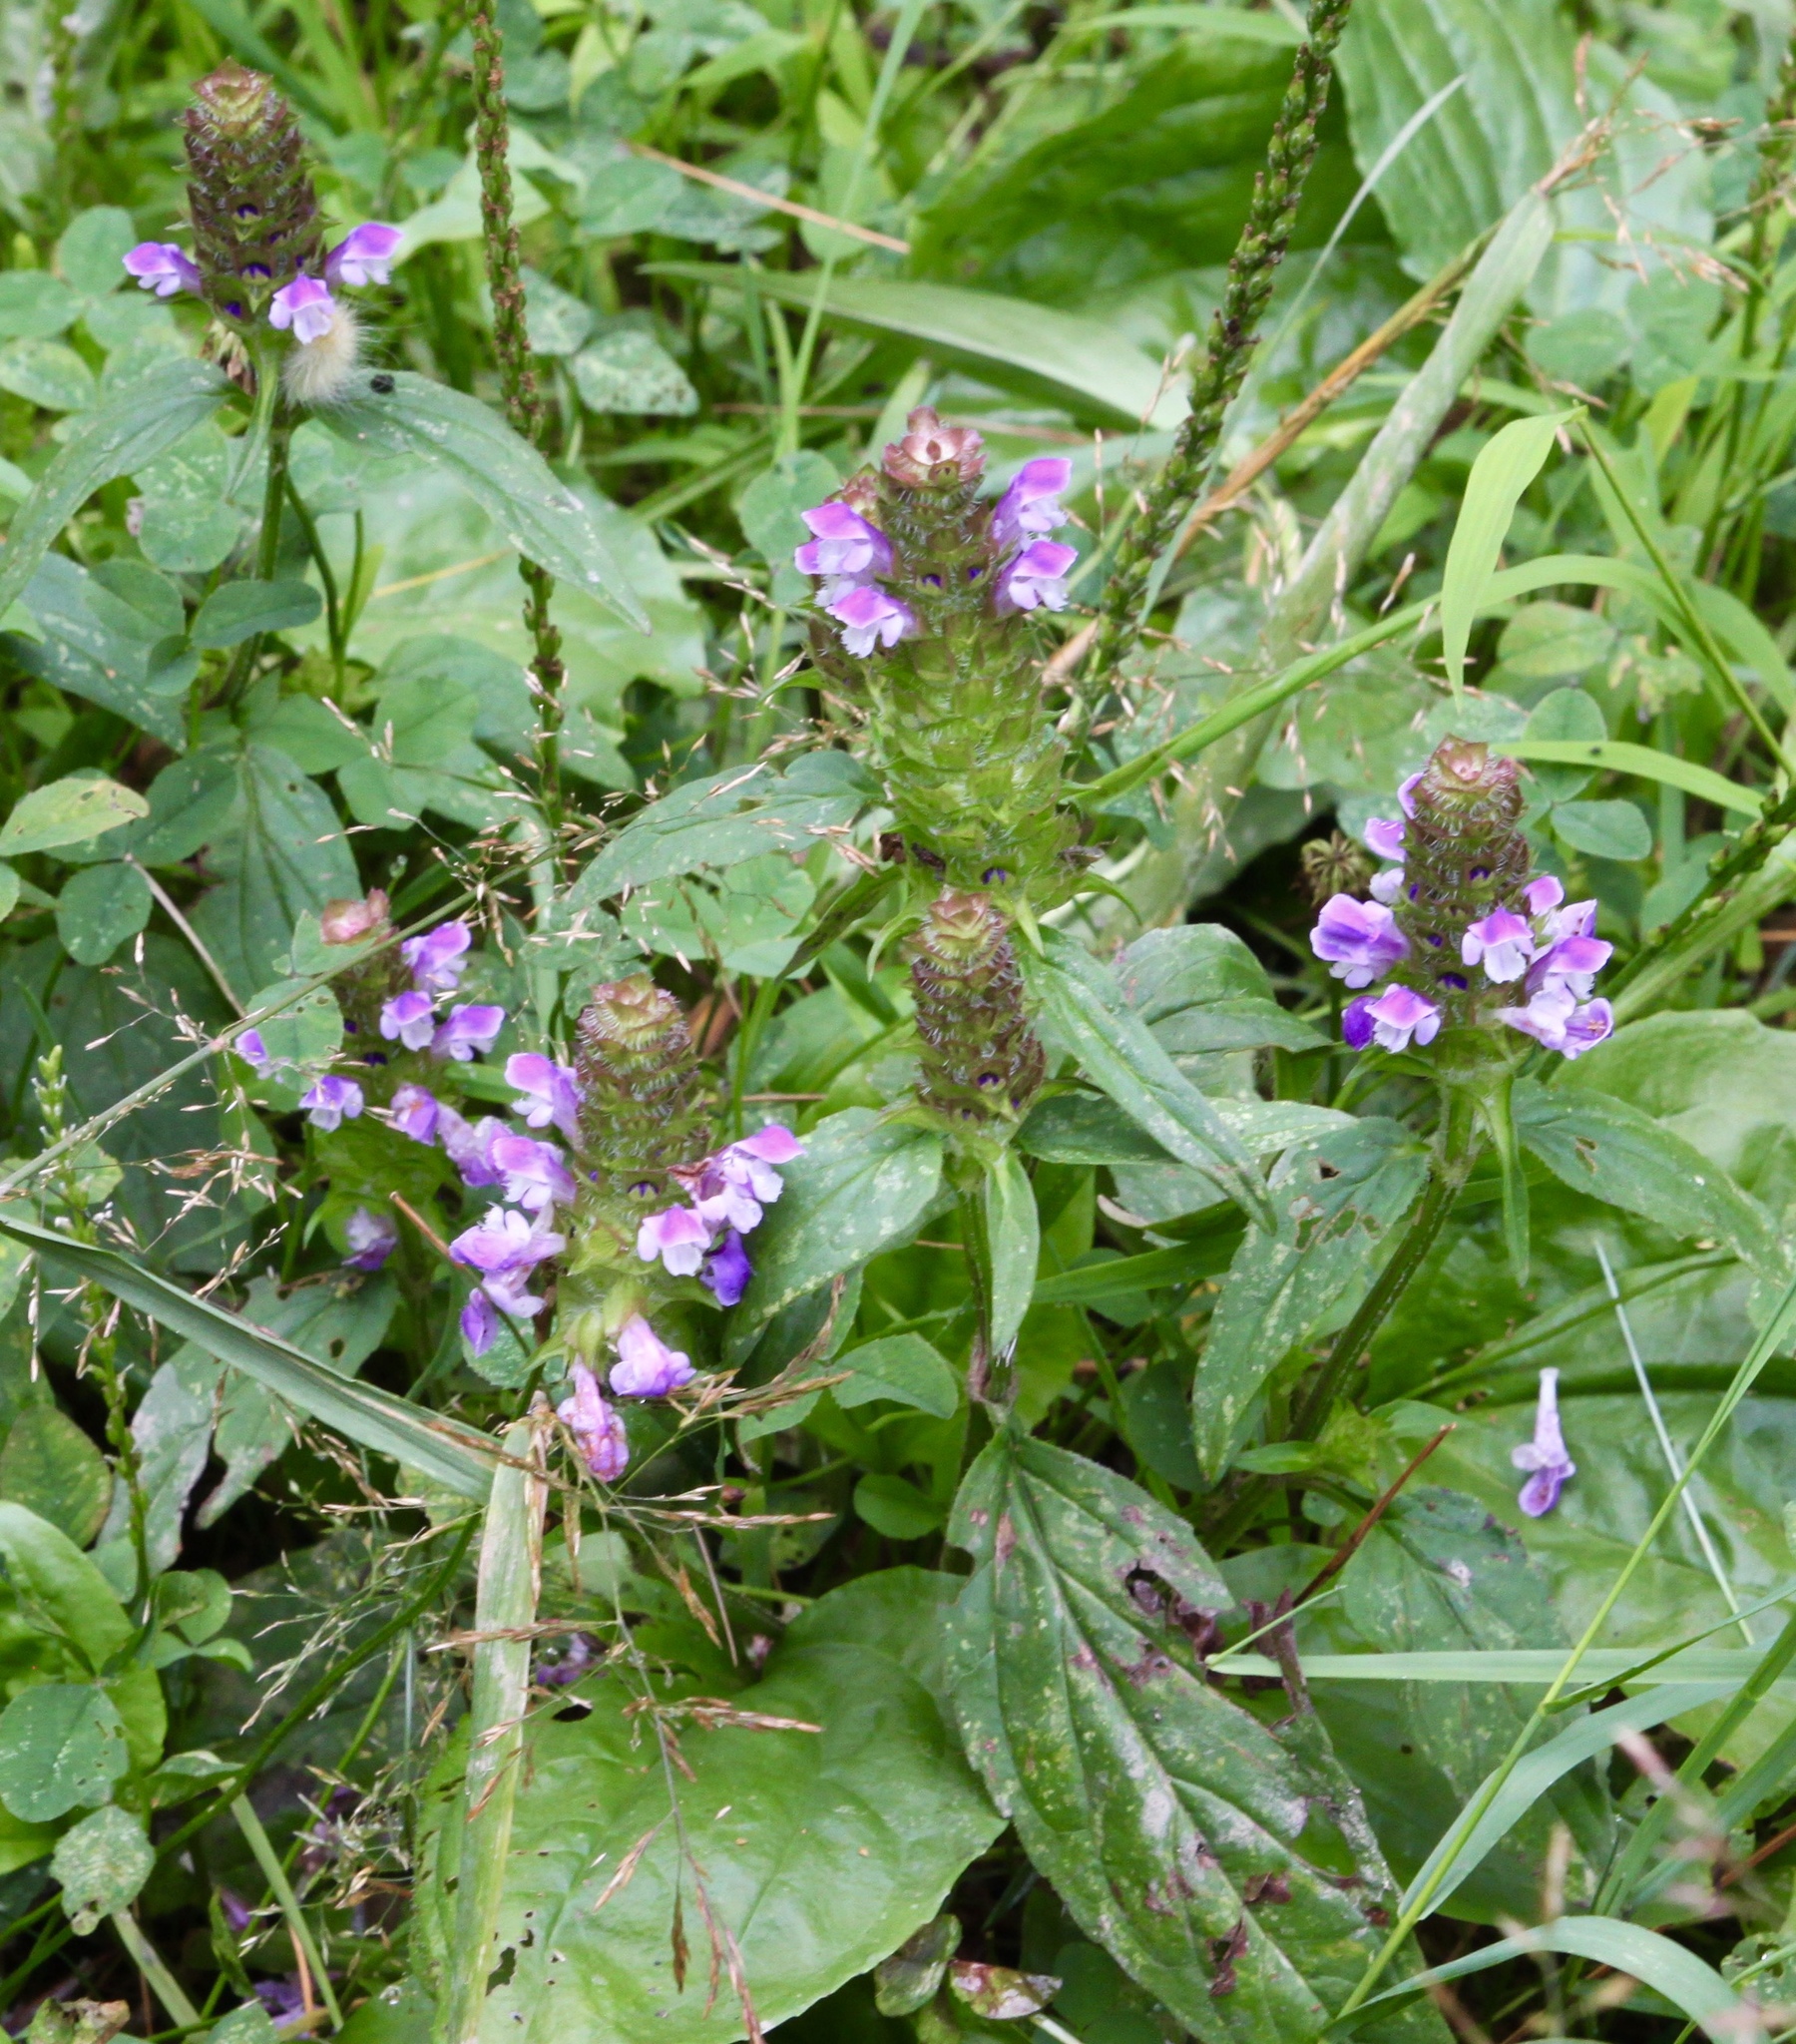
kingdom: Plantae
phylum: Tracheophyta
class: Magnoliopsida
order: Lamiales
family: Lamiaceae
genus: Prunella
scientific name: Prunella vulgaris
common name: Heal-all
